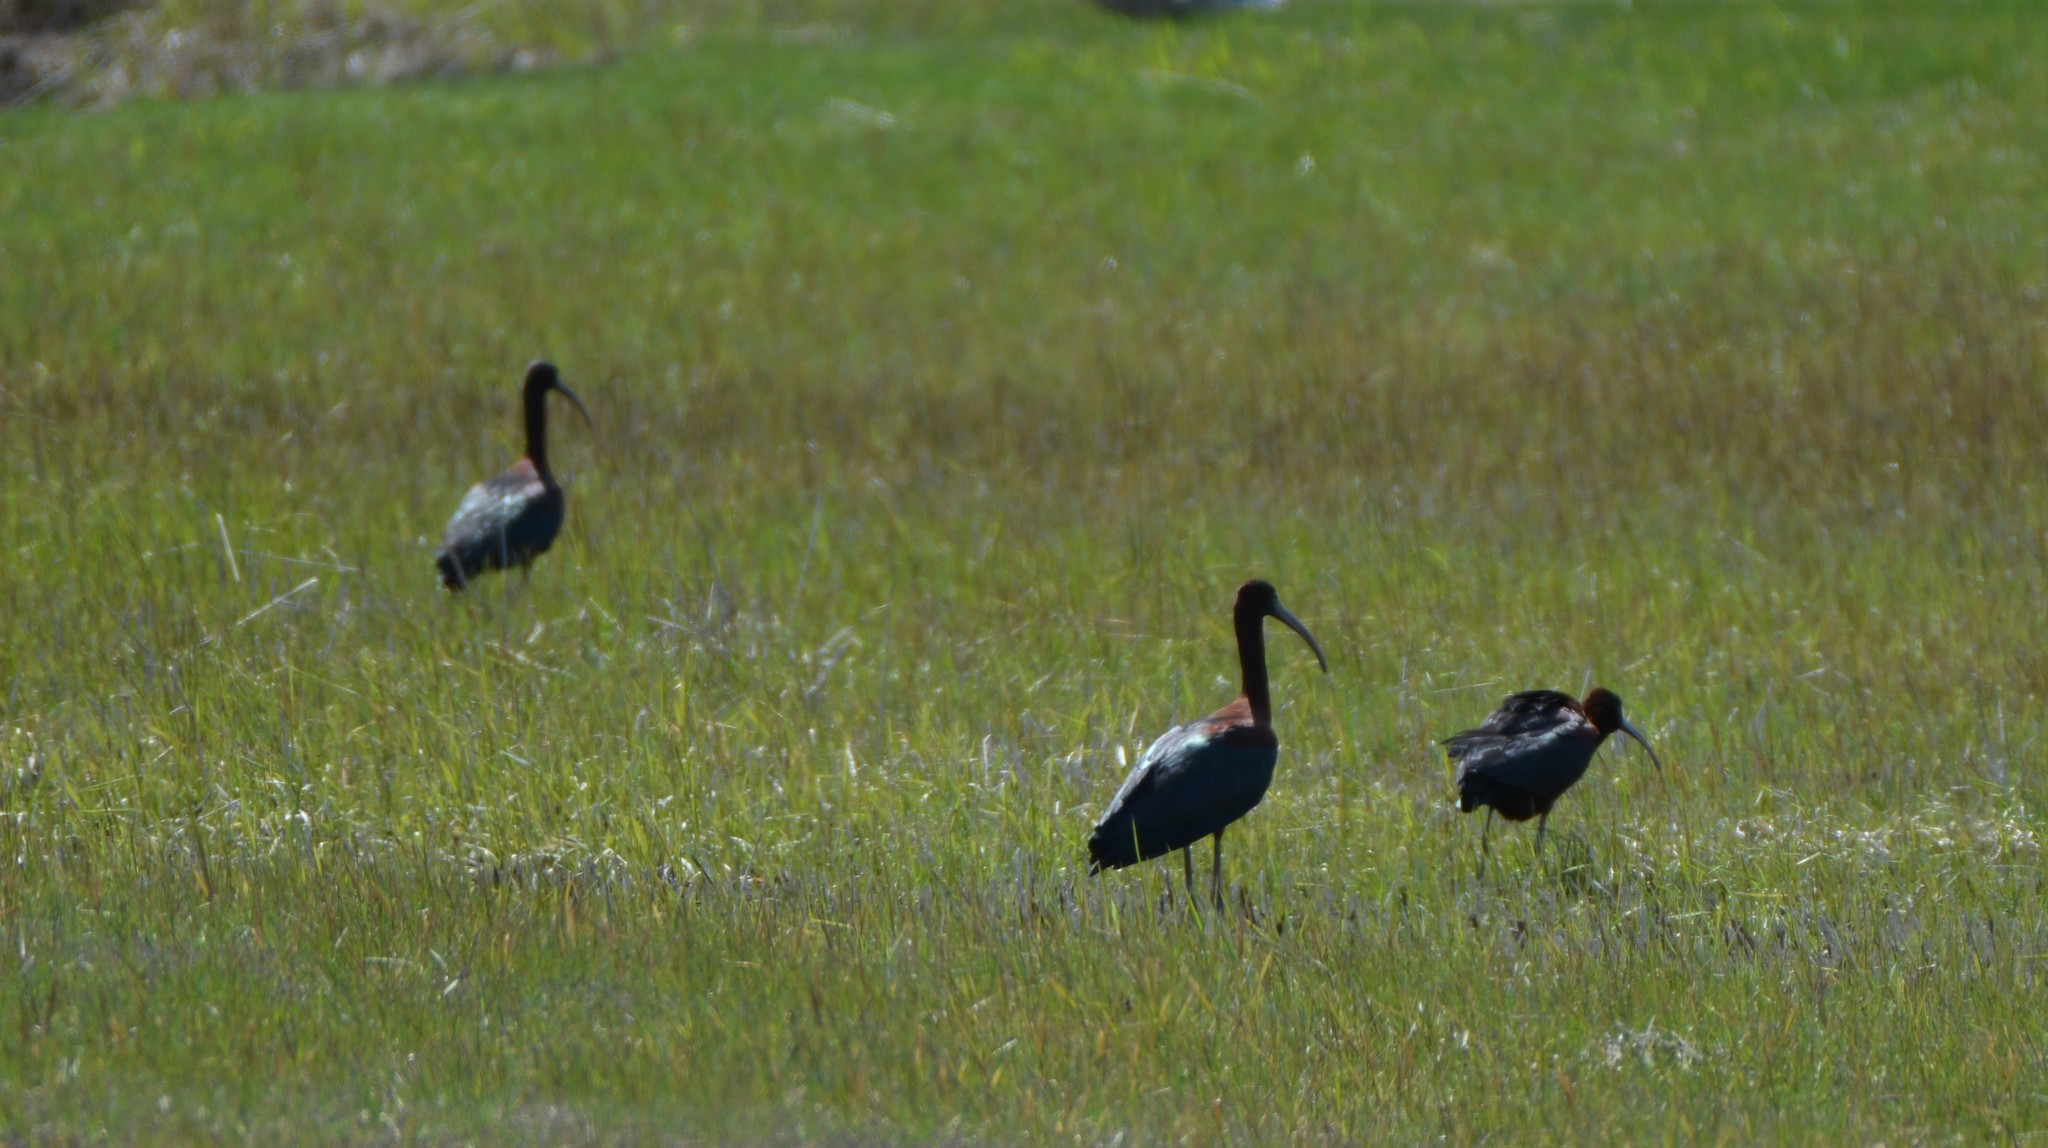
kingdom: Animalia
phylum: Chordata
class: Aves
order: Pelecaniformes
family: Threskiornithidae
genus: Plegadis
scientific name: Plegadis falcinellus
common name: Glossy ibis
